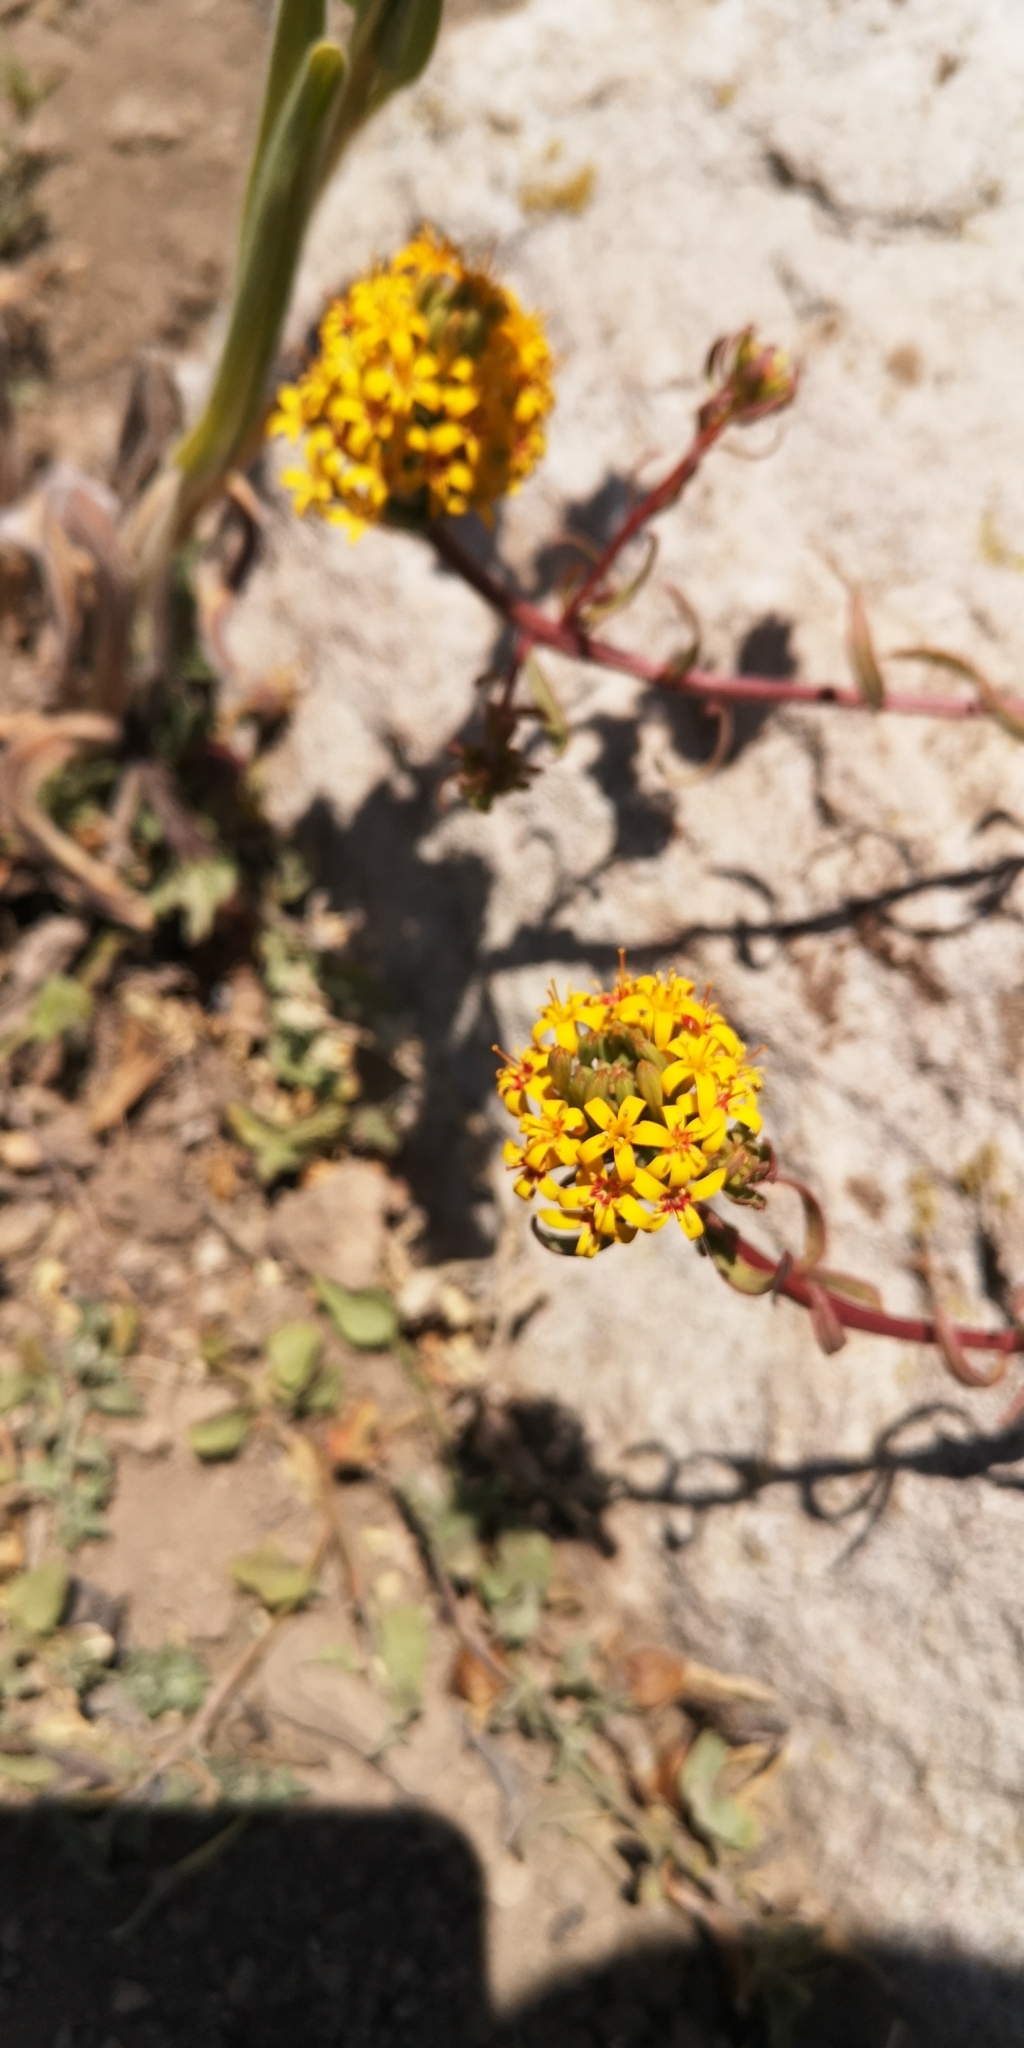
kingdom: Plantae
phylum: Tracheophyta
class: Magnoliopsida
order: Santalales
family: Schoepfiaceae
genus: Quinchamalium
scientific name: Quinchamalium chilense
